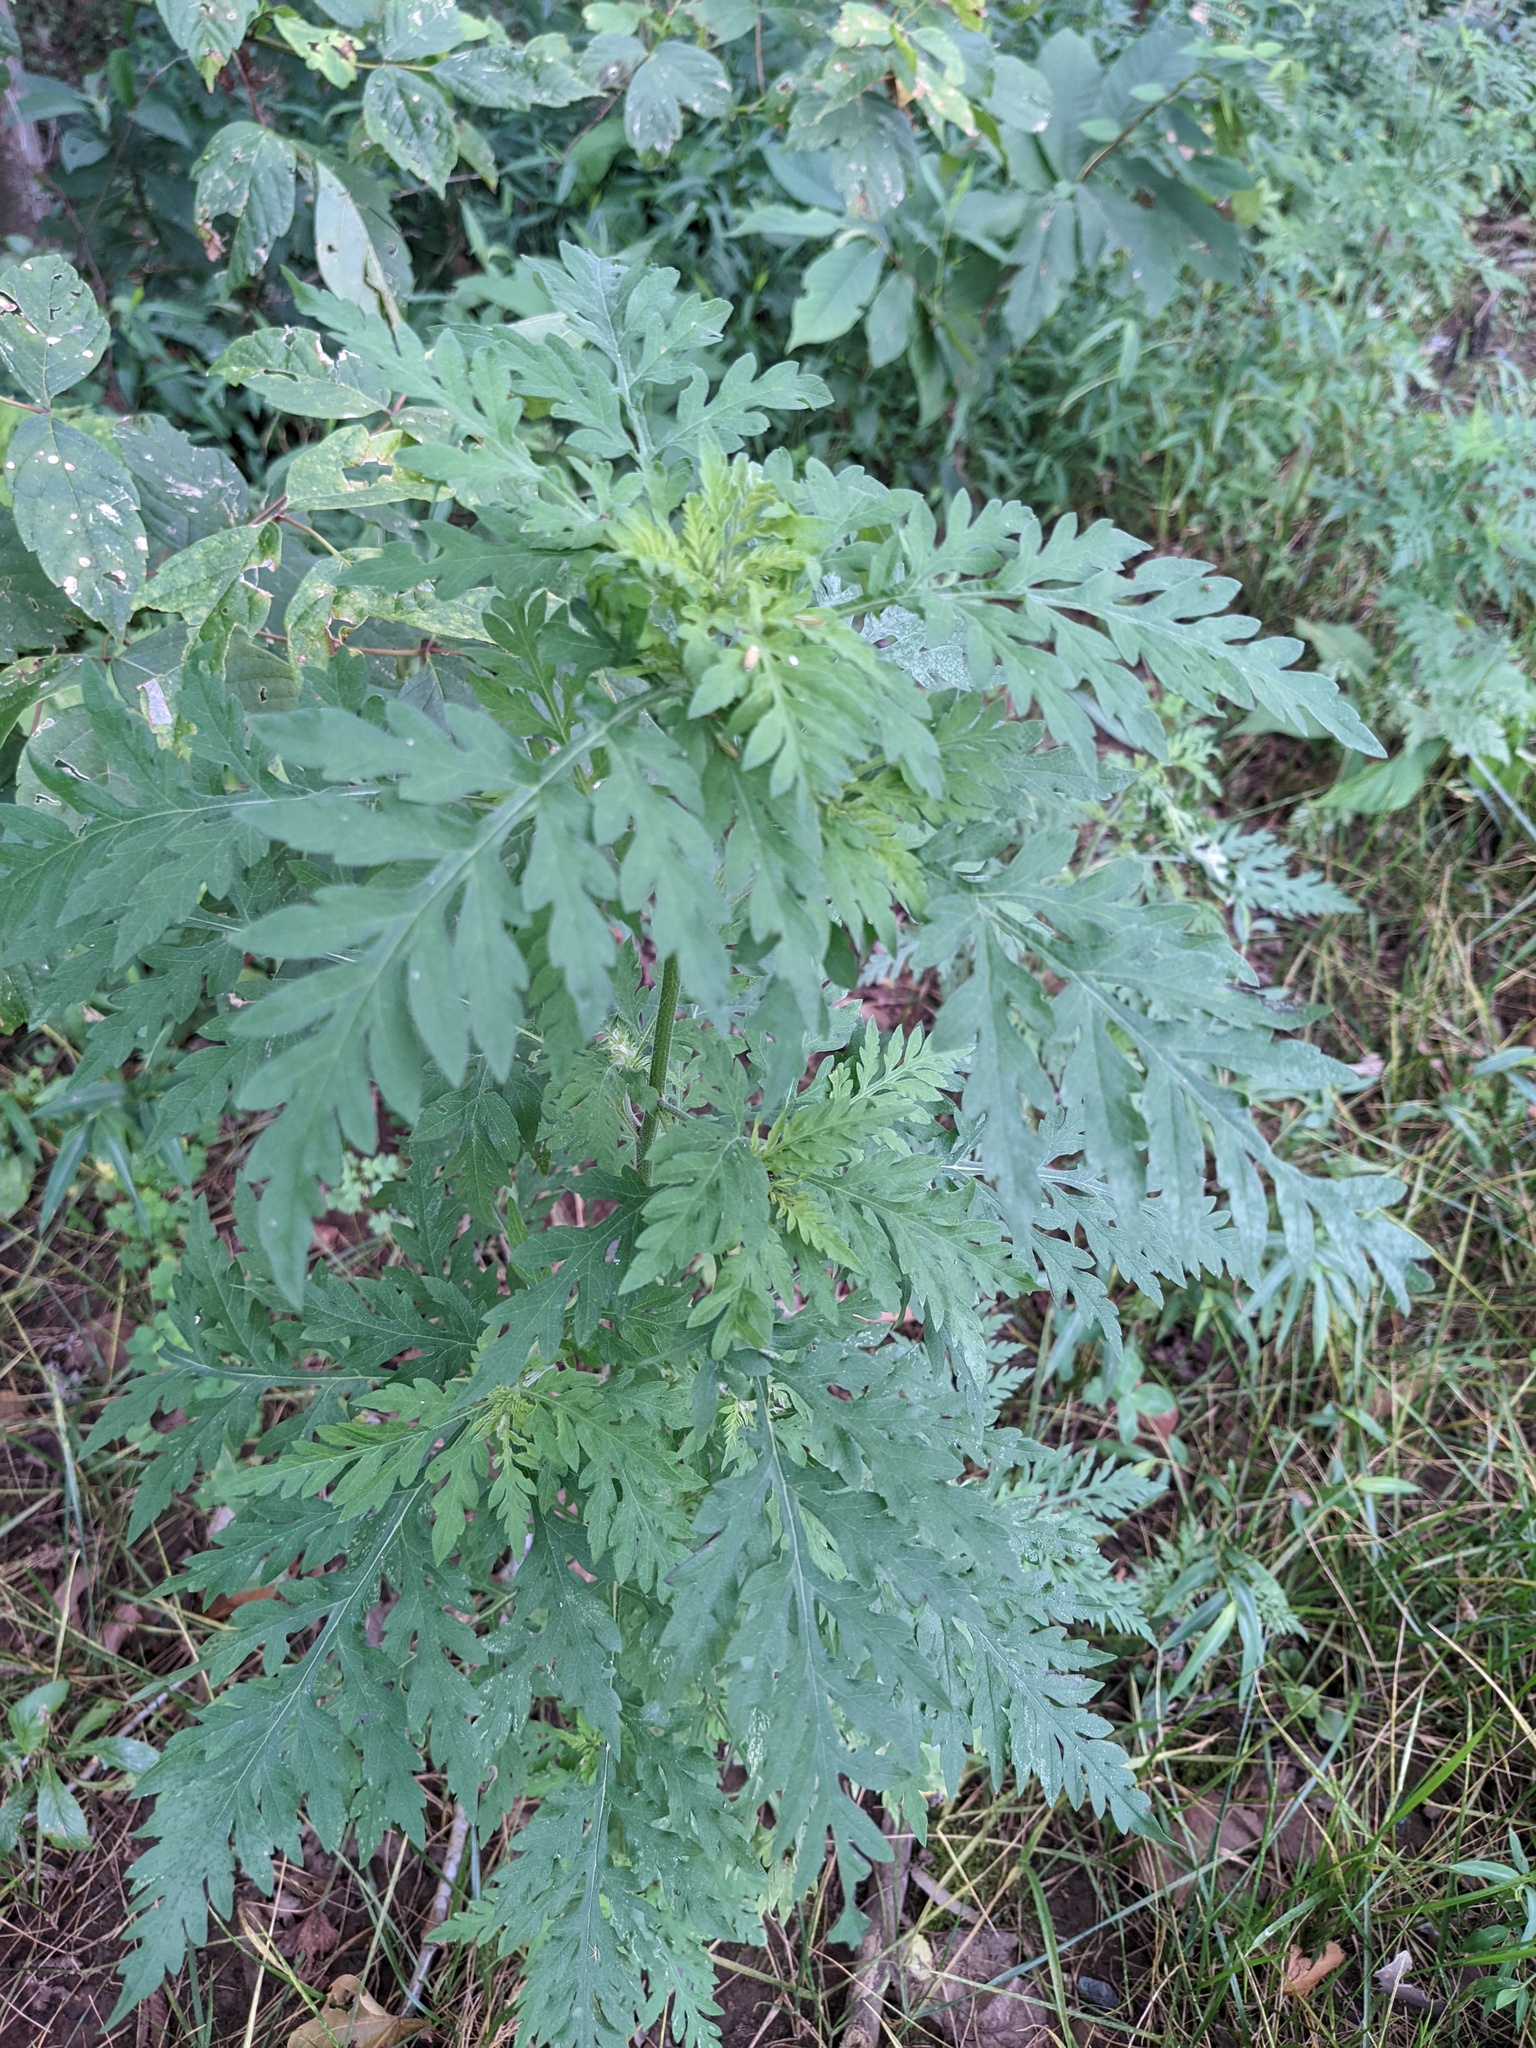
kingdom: Plantae
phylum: Tracheophyta
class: Magnoliopsida
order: Asterales
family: Asteraceae
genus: Ambrosia
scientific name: Ambrosia artemisiifolia
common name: Annual ragweed
